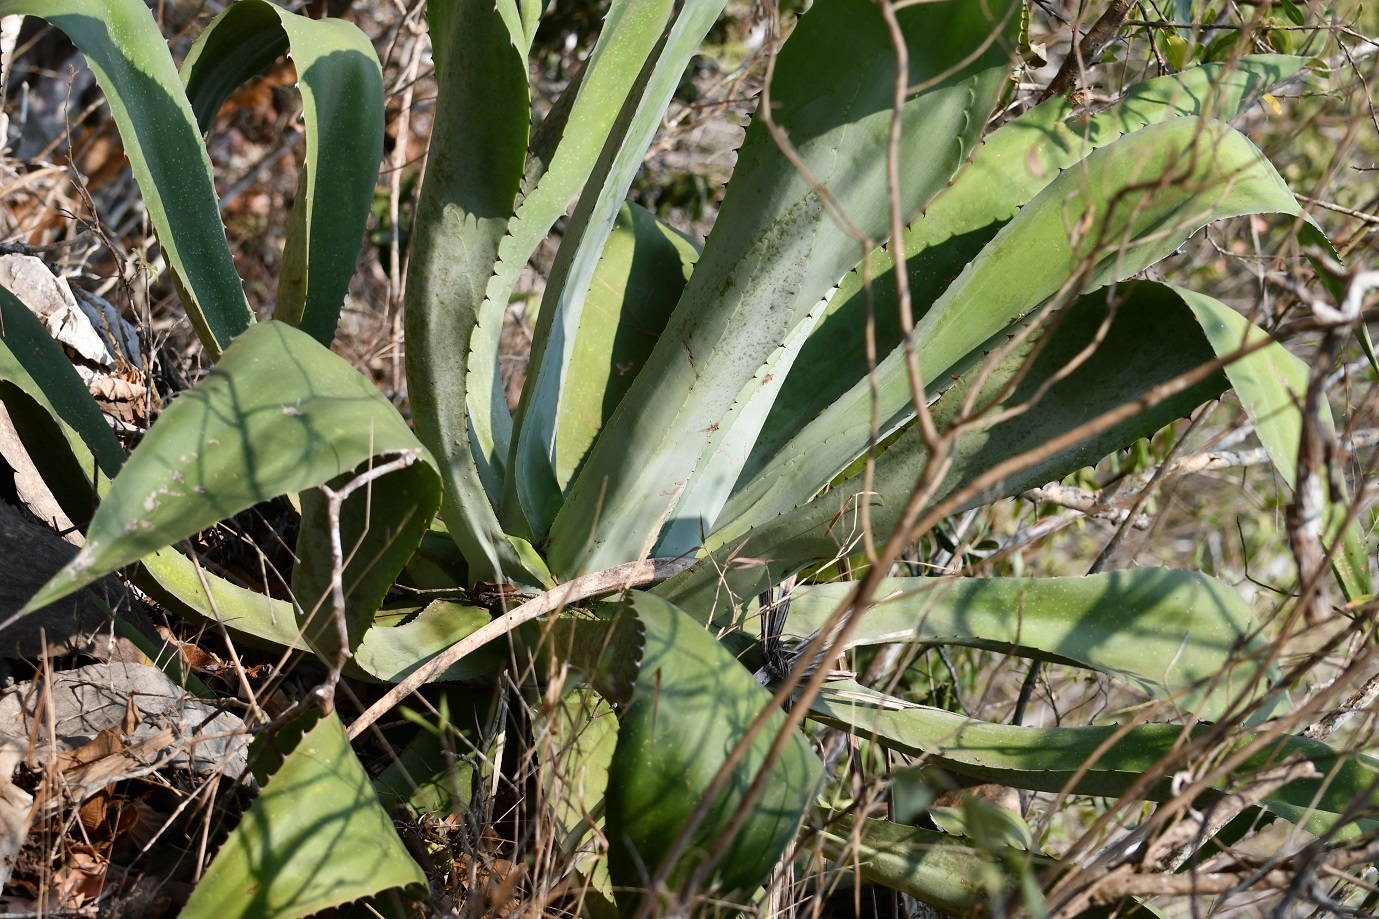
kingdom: Plantae
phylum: Tracheophyta
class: Liliopsida
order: Asparagales
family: Asparagaceae
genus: Agave
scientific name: Agave kewensis
